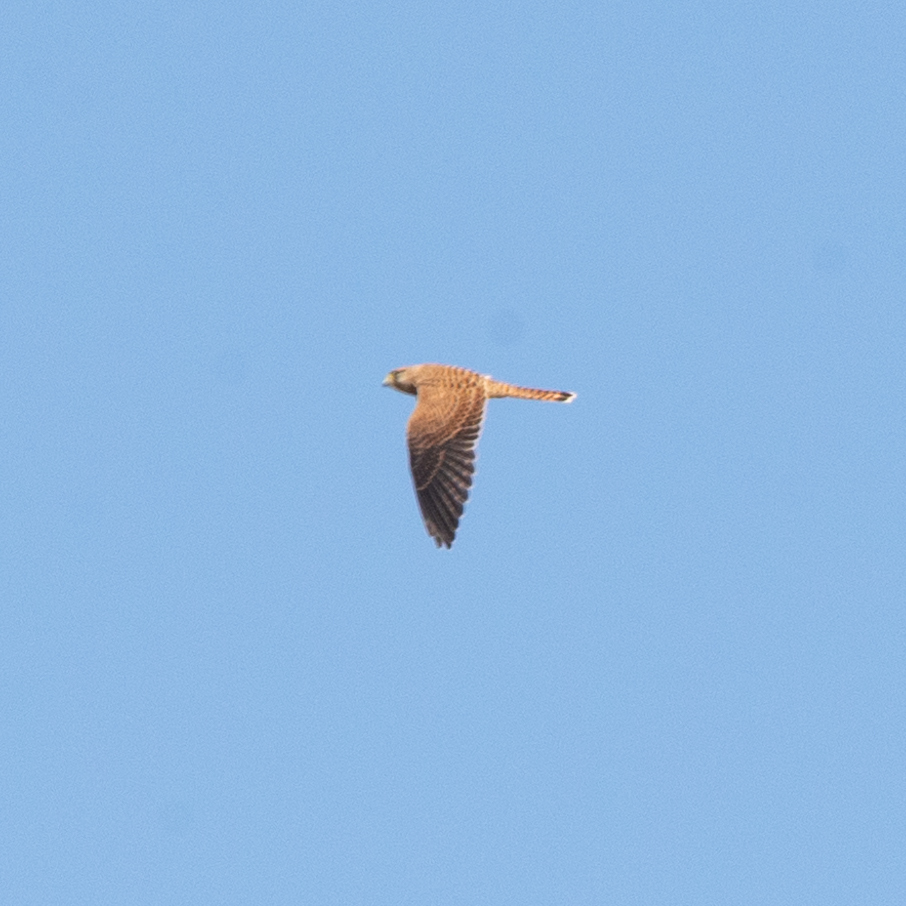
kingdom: Animalia
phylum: Chordata
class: Aves
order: Falconiformes
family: Falconidae
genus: Falco
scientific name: Falco tinnunculus
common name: Common kestrel
